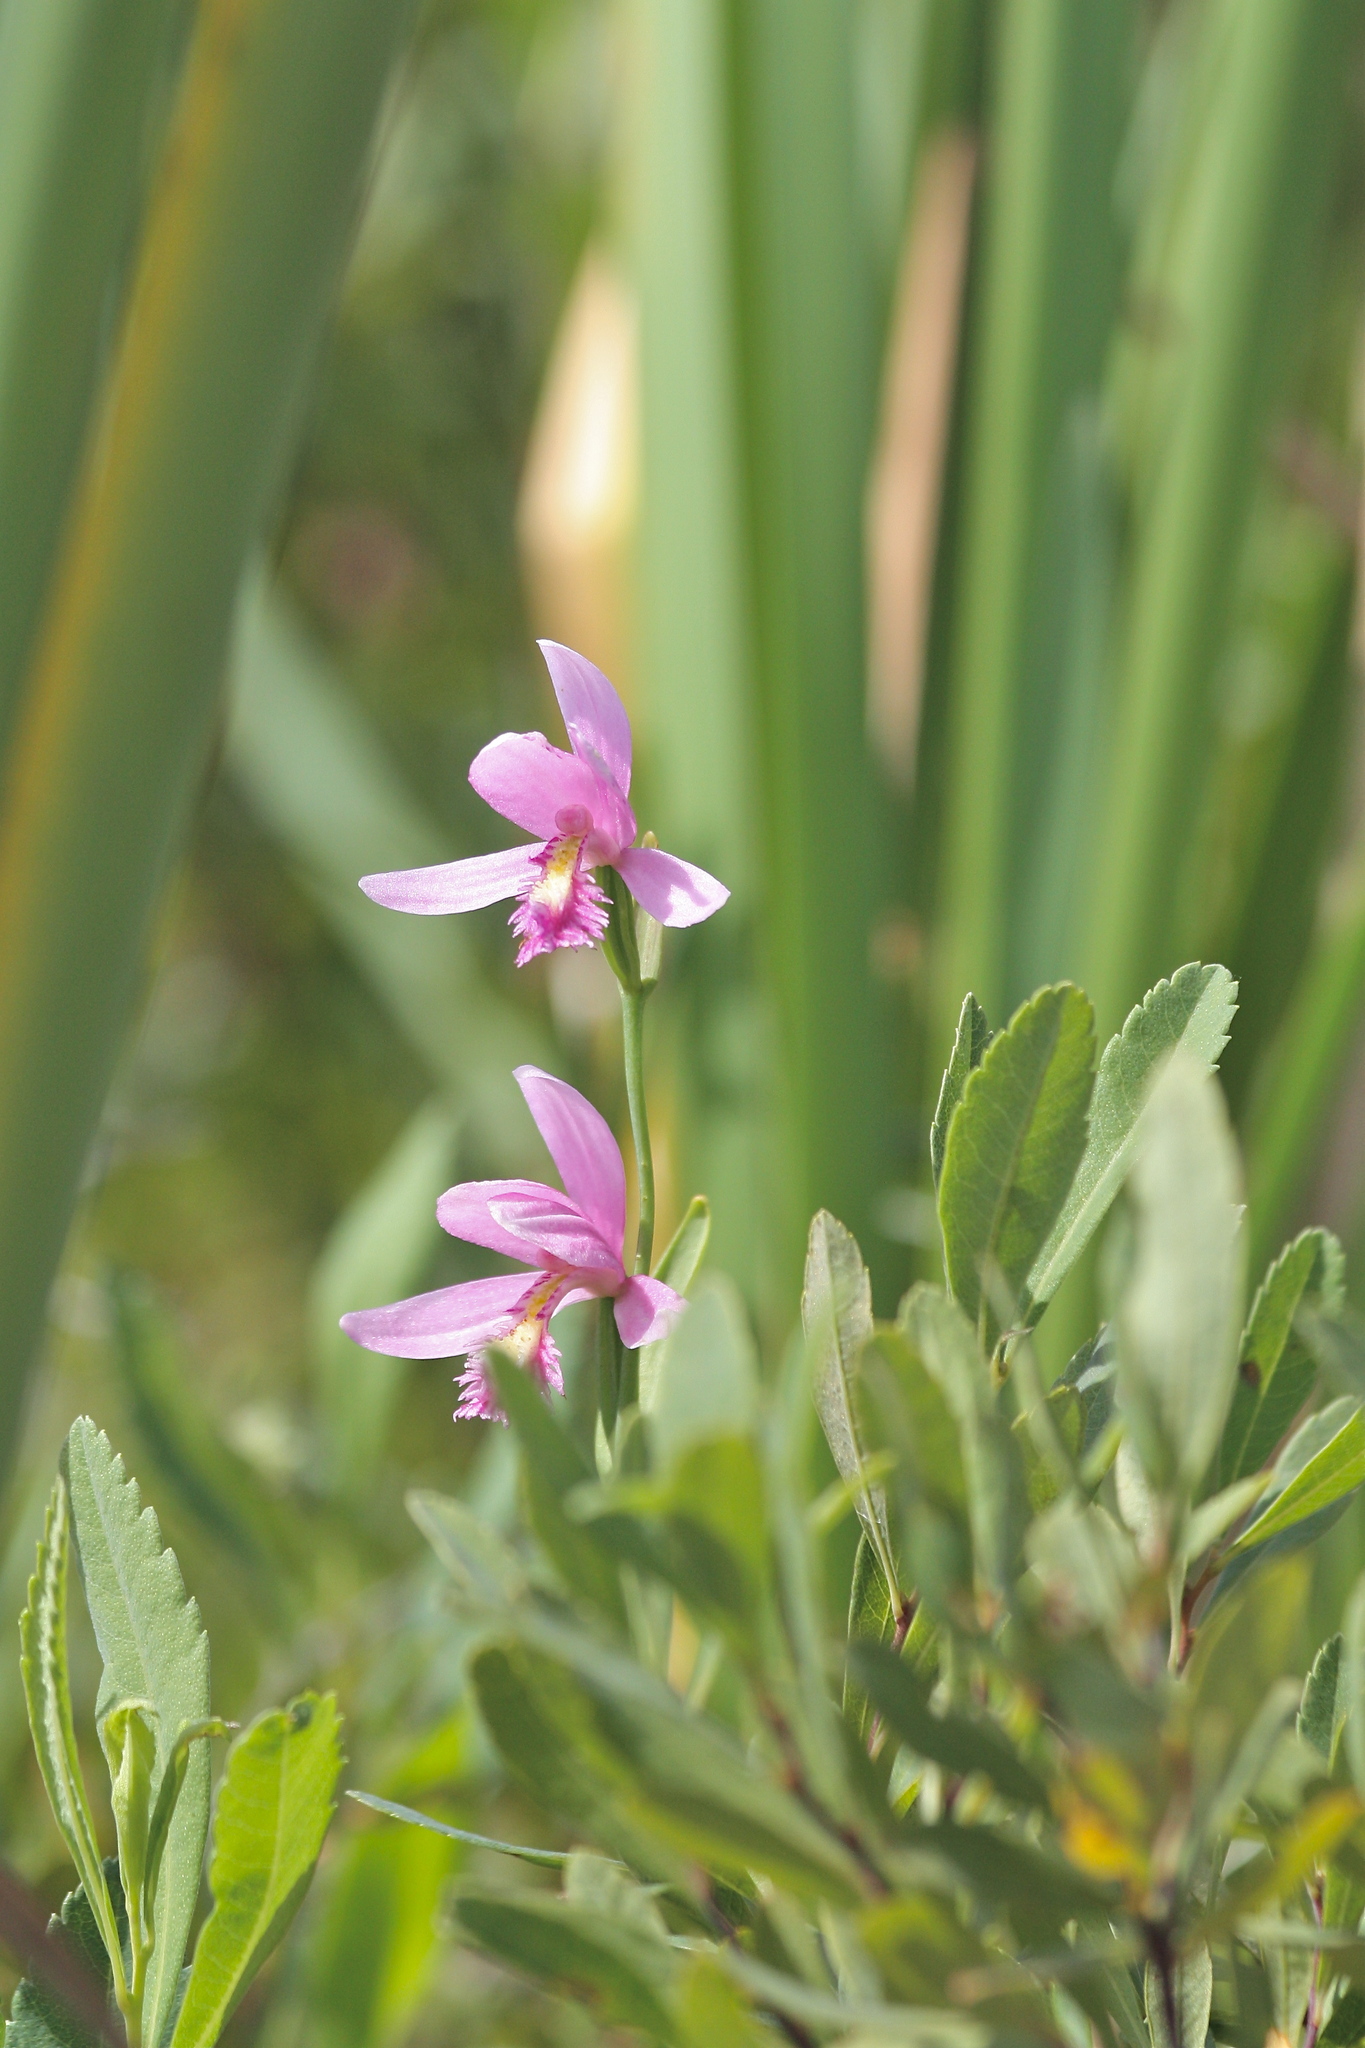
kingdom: Plantae
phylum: Tracheophyta
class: Liliopsida
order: Asparagales
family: Orchidaceae
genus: Pogonia
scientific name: Pogonia ophioglossoides
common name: Rose pogonia
